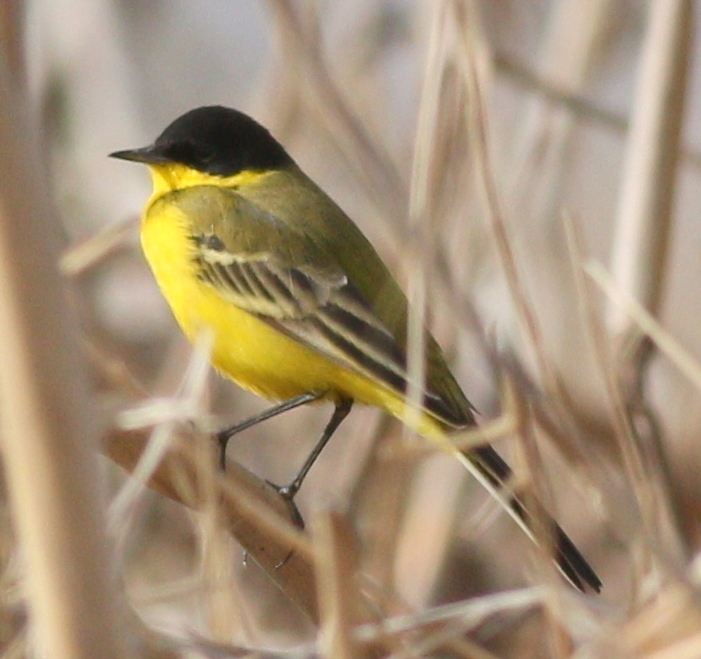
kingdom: Animalia
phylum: Chordata
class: Aves
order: Passeriformes
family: Motacillidae
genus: Motacilla
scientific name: Motacilla flava
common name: Western yellow wagtail
